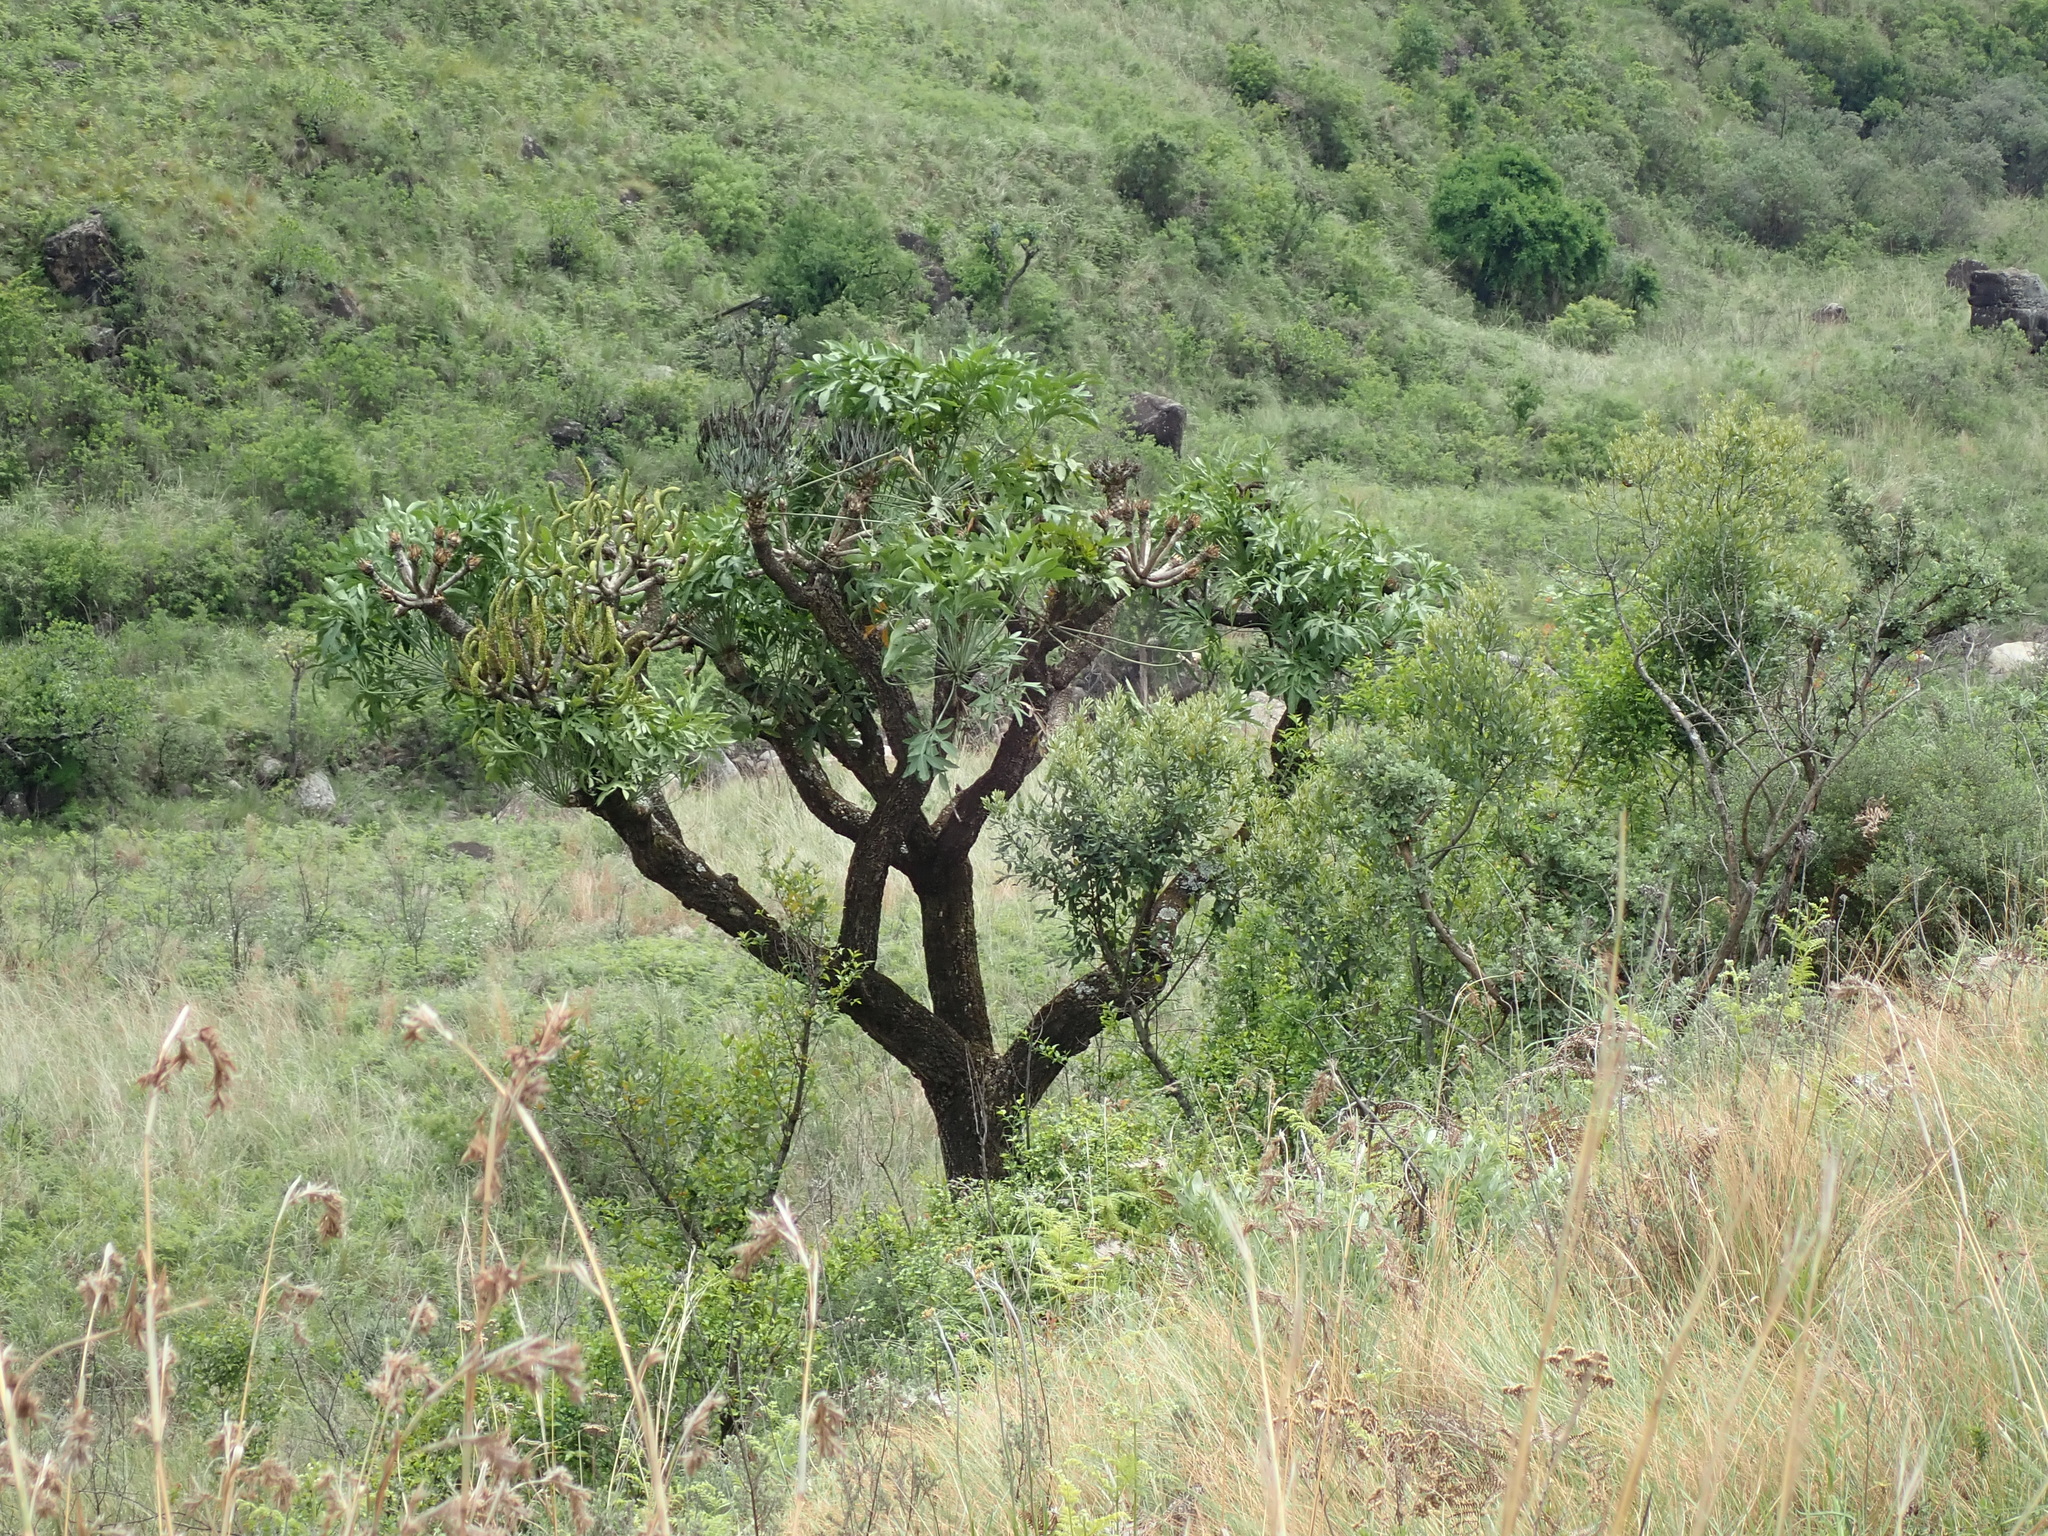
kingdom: Plantae
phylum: Tracheophyta
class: Magnoliopsida
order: Apiales
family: Araliaceae
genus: Cussonia
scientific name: Cussonia spicata
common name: Common cabbagetree
